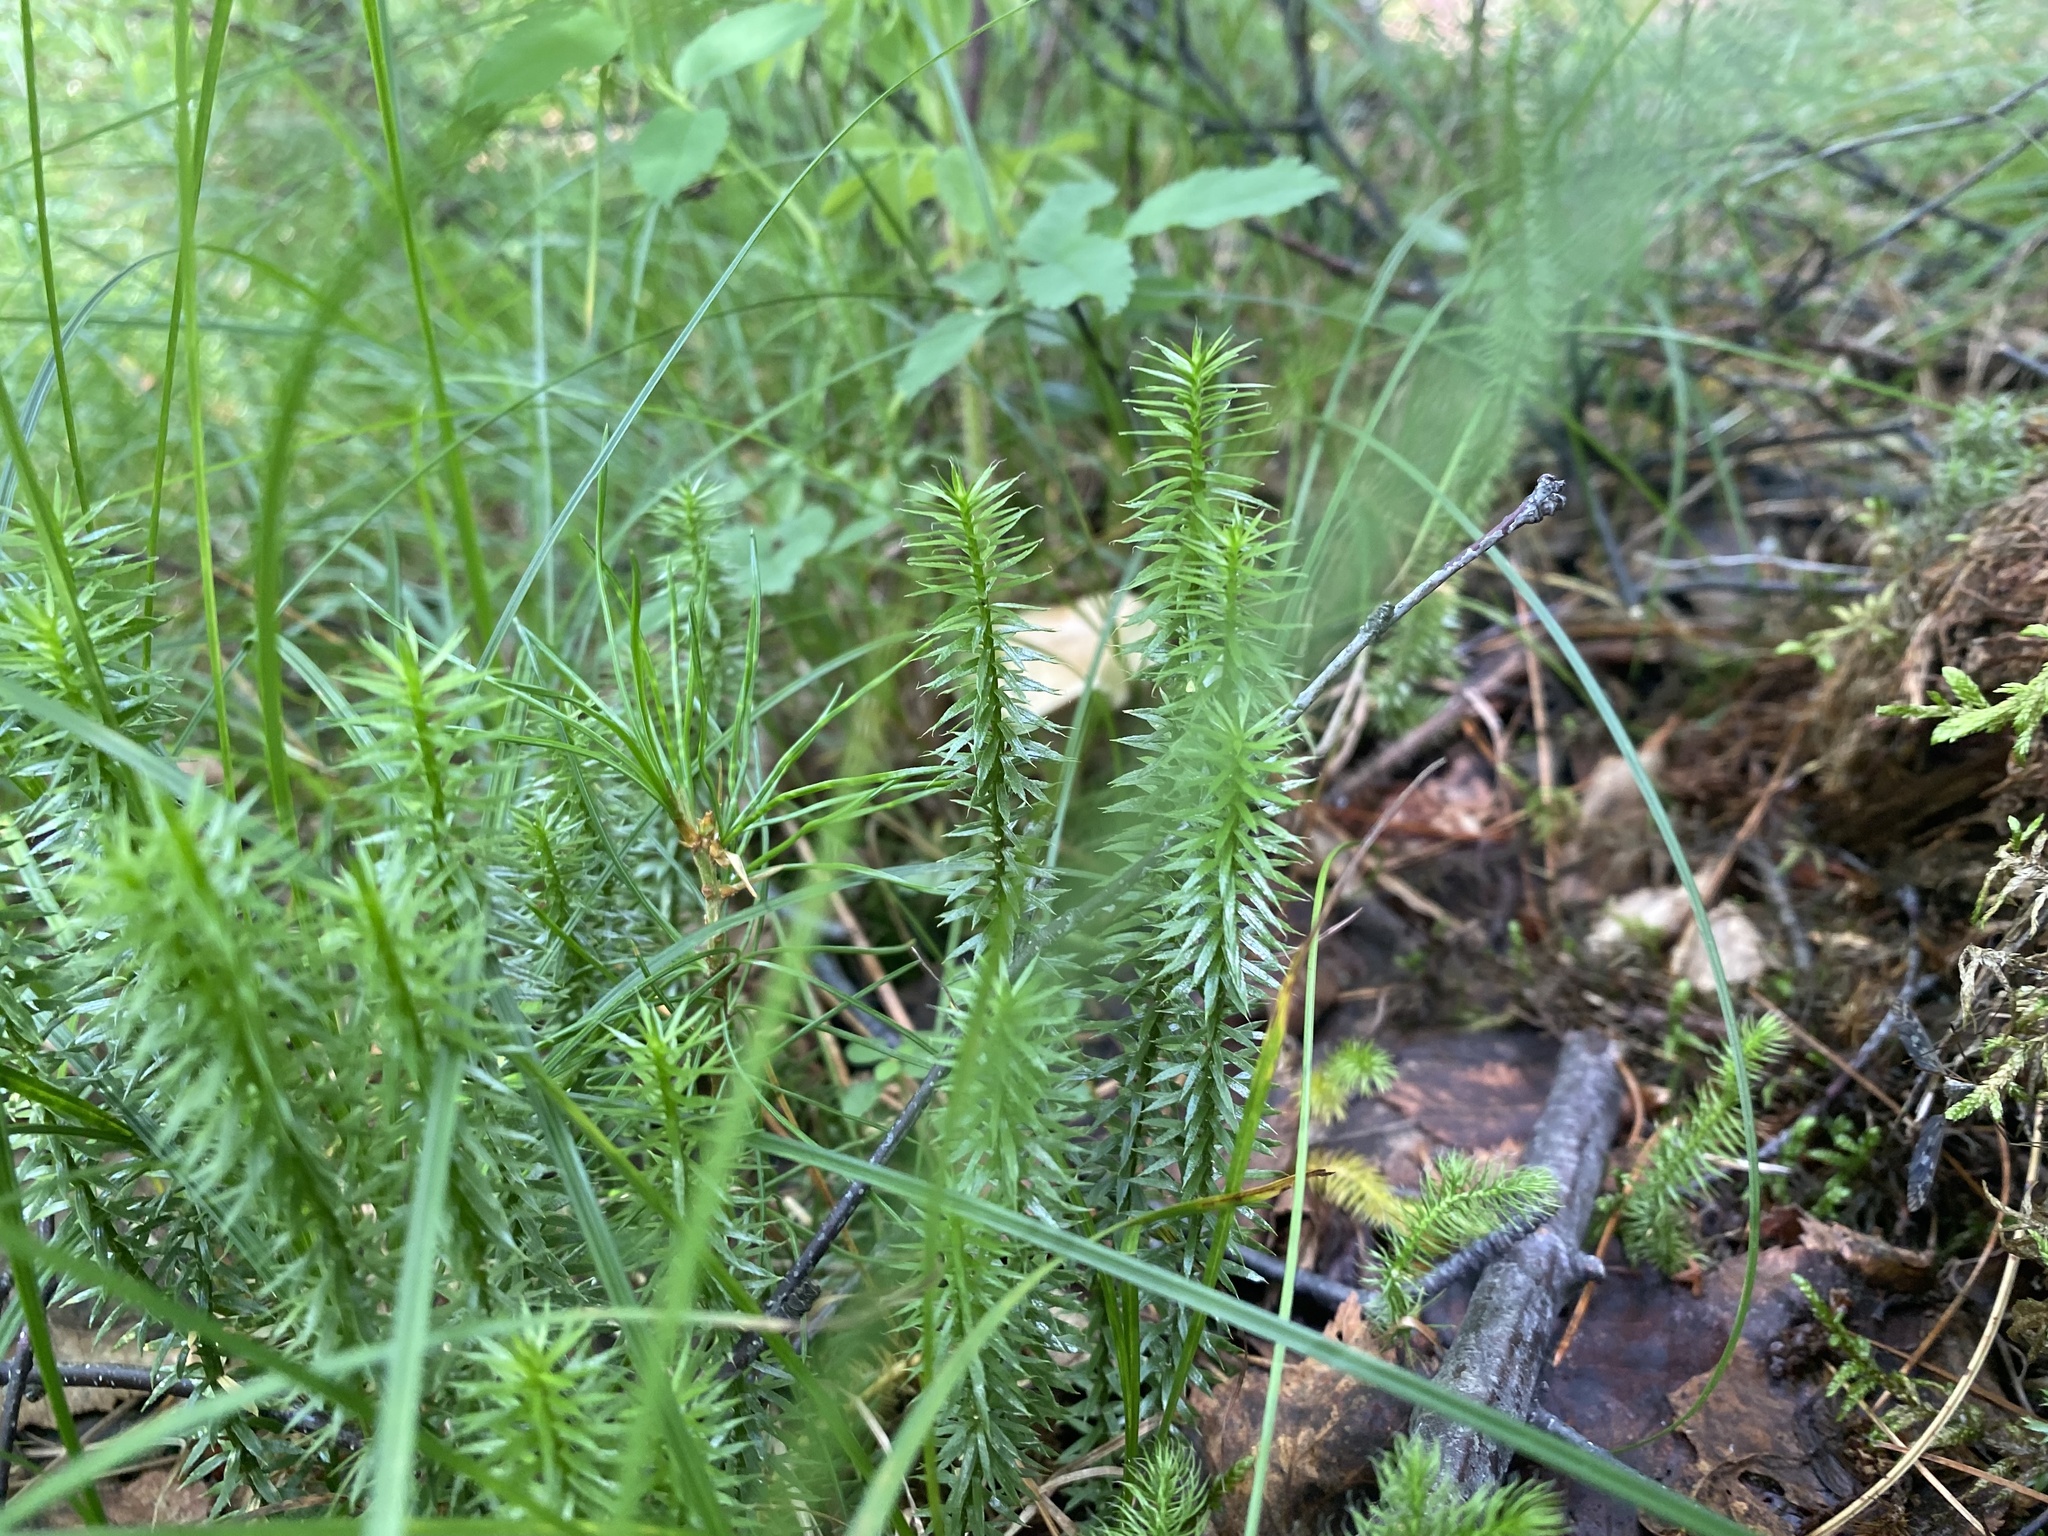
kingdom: Plantae
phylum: Tracheophyta
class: Lycopodiopsida
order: Lycopodiales
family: Lycopodiaceae
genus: Spinulum
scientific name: Spinulum annotinum
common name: Interrupted club-moss
